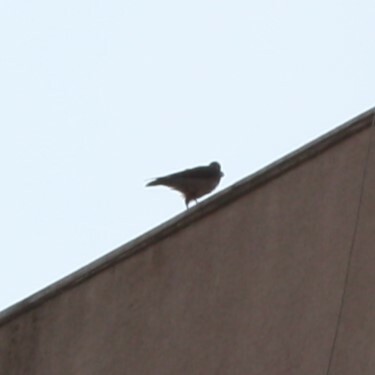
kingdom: Animalia
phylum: Chordata
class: Aves
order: Passeriformes
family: Corvidae
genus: Corvus
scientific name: Corvus cornix
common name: Hooded crow
